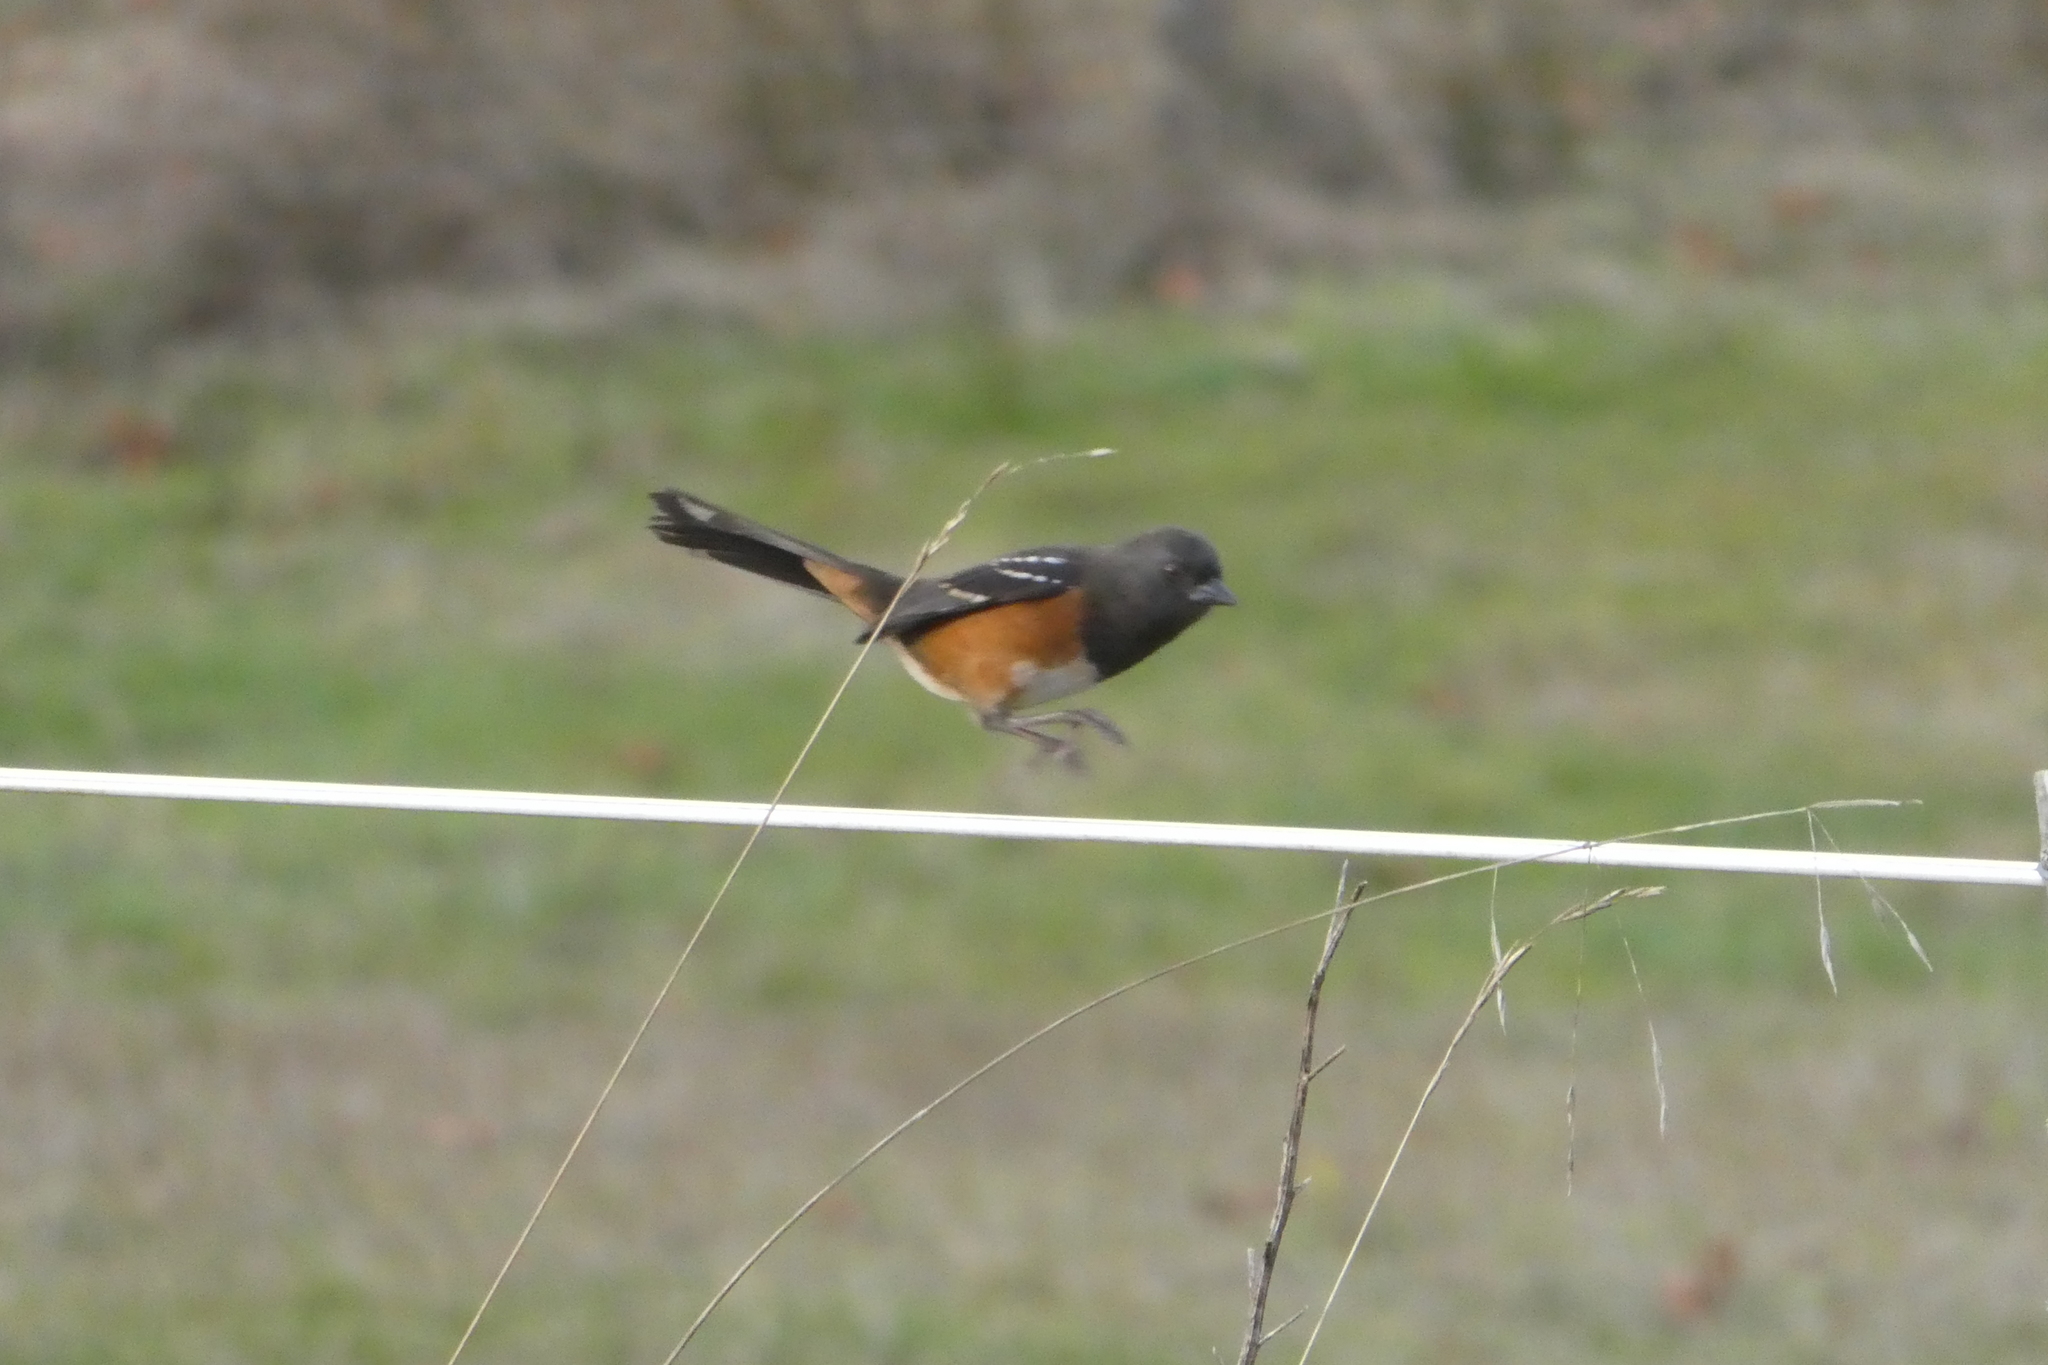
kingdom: Animalia
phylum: Chordata
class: Aves
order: Passeriformes
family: Passerellidae
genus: Pipilo
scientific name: Pipilo maculatus
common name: Spotted towhee
